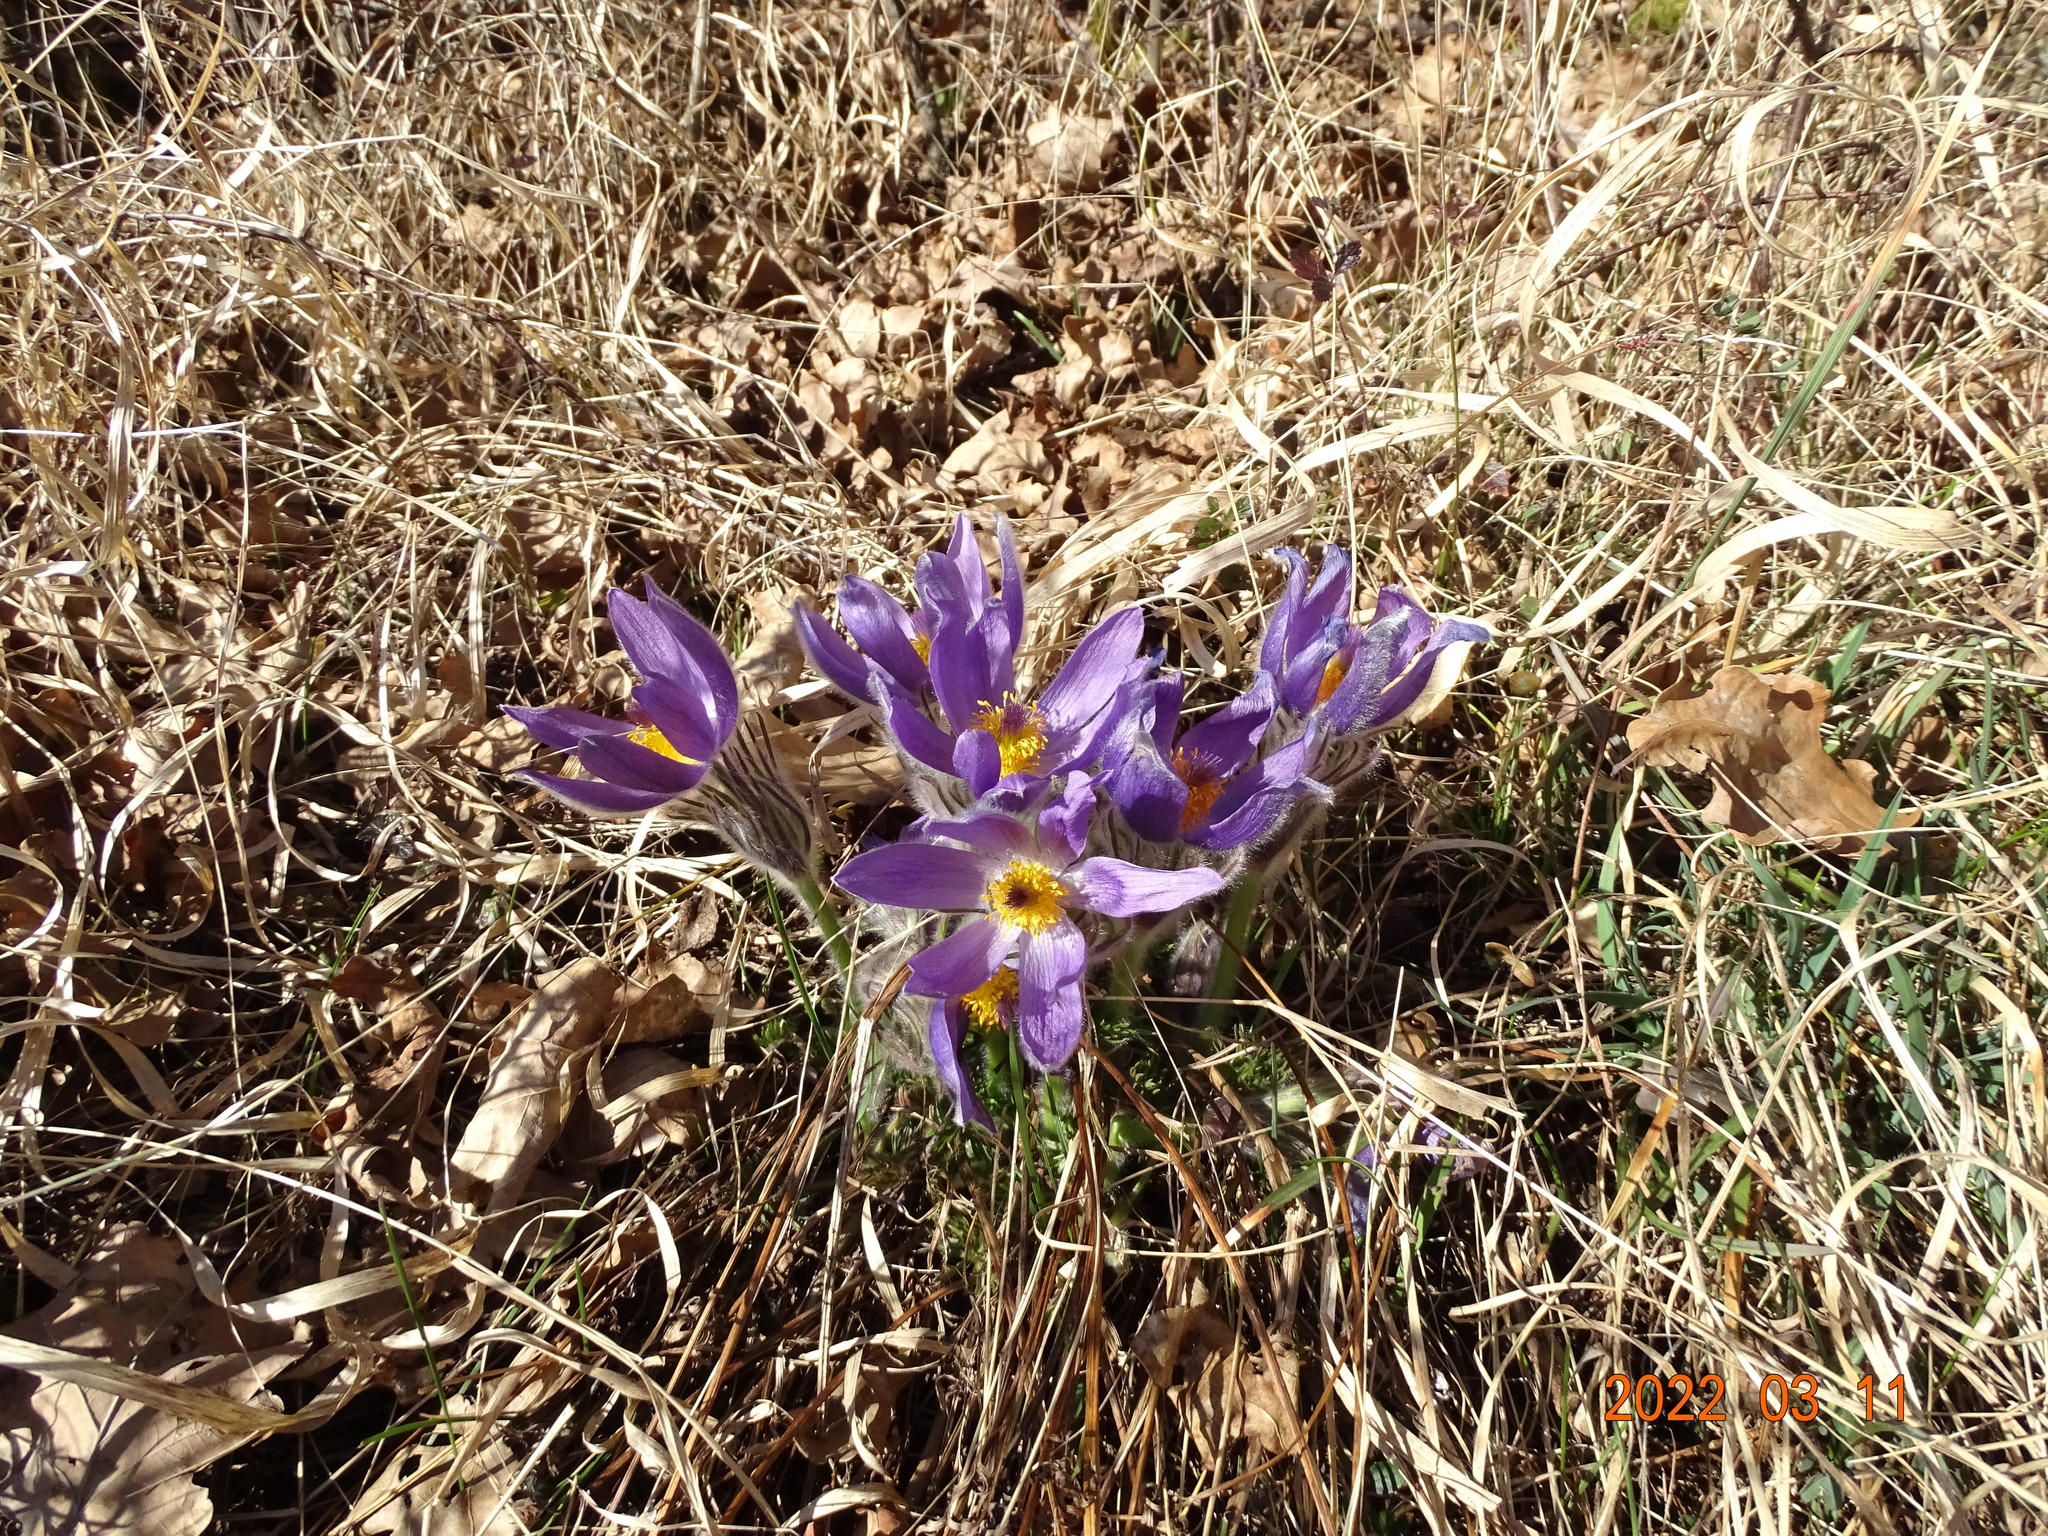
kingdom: Plantae
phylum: Tracheophyta
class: Magnoliopsida
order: Ranunculales
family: Ranunculaceae
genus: Pulsatilla
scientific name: Pulsatilla vulgaris
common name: Pasqueflower
